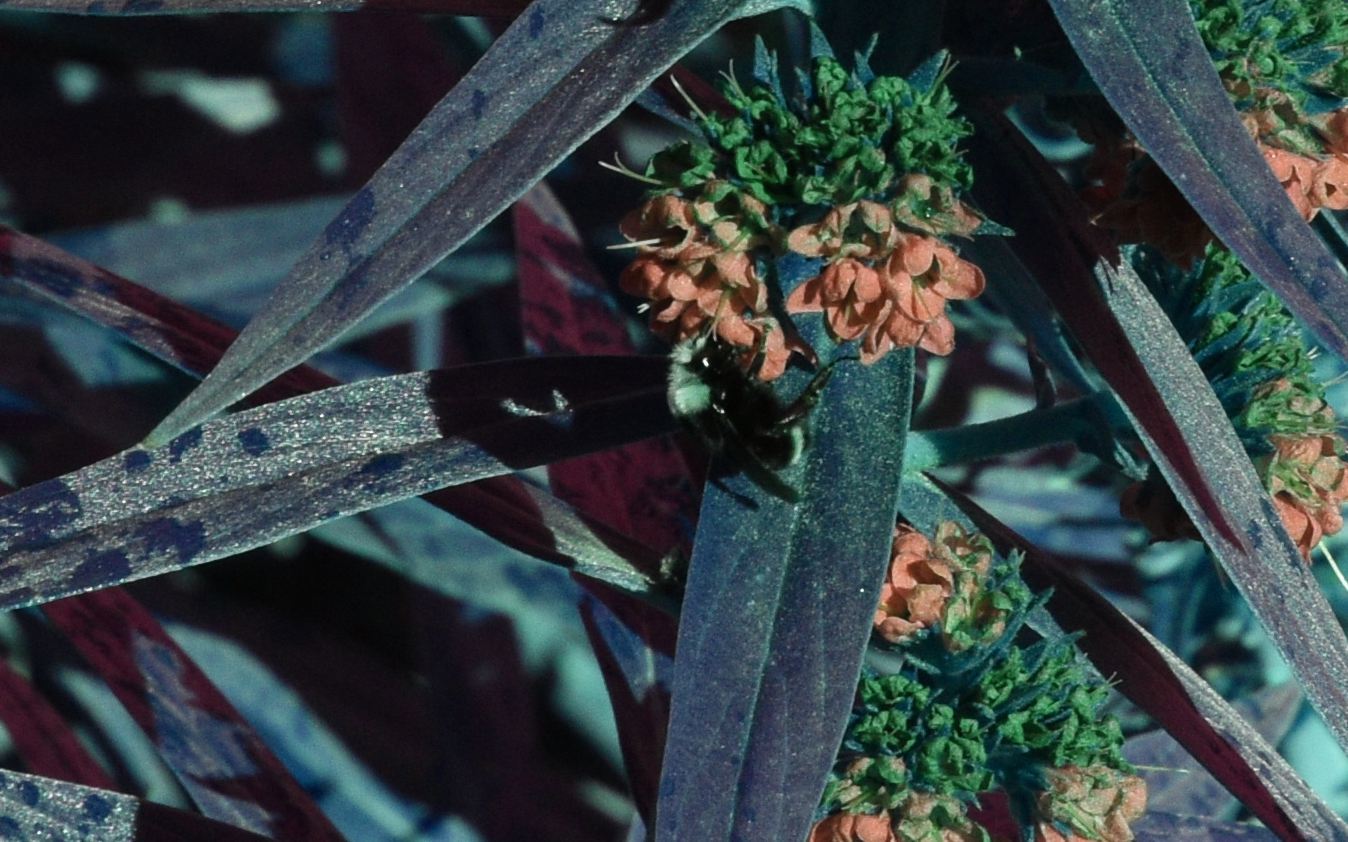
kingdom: Animalia
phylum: Arthropoda
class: Insecta
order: Hymenoptera
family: Apidae
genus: Pyrobombus
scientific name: Pyrobombus
